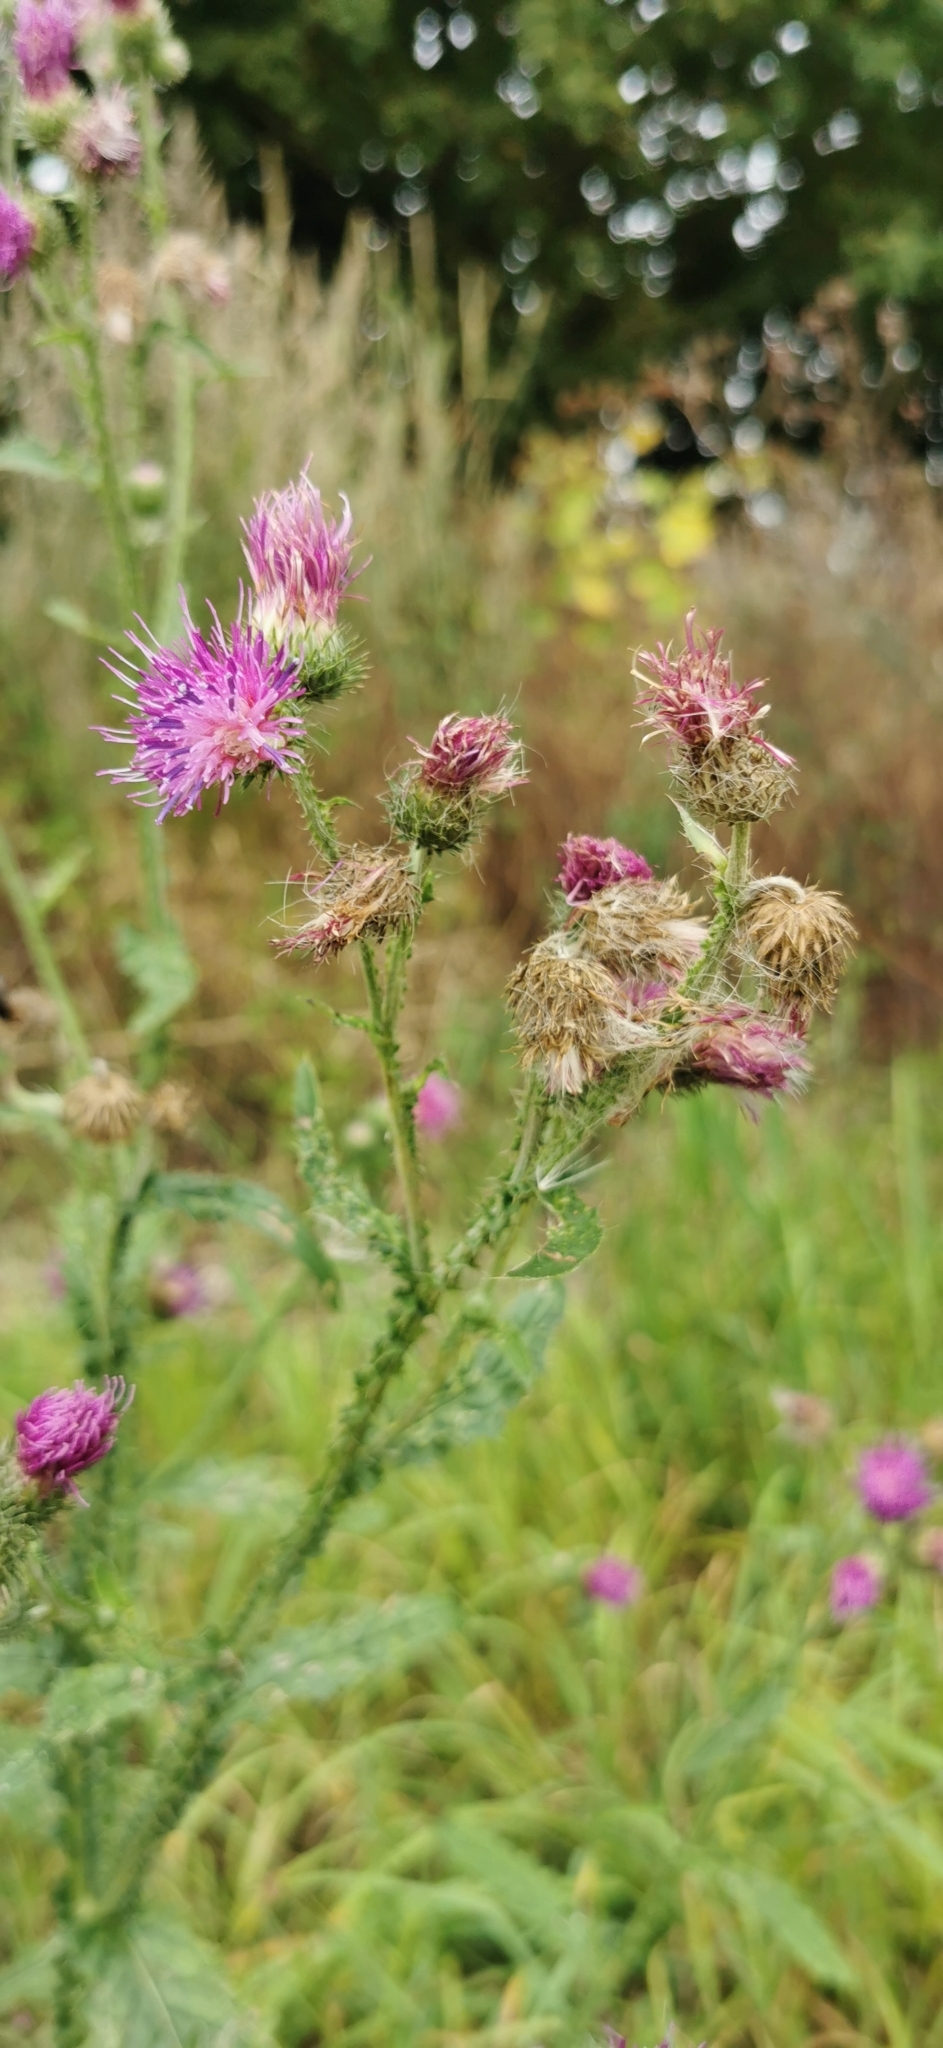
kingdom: Plantae
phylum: Tracheophyta
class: Magnoliopsida
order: Asterales
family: Asteraceae
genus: Carduus
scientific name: Carduus crispus
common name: Welted thistle
